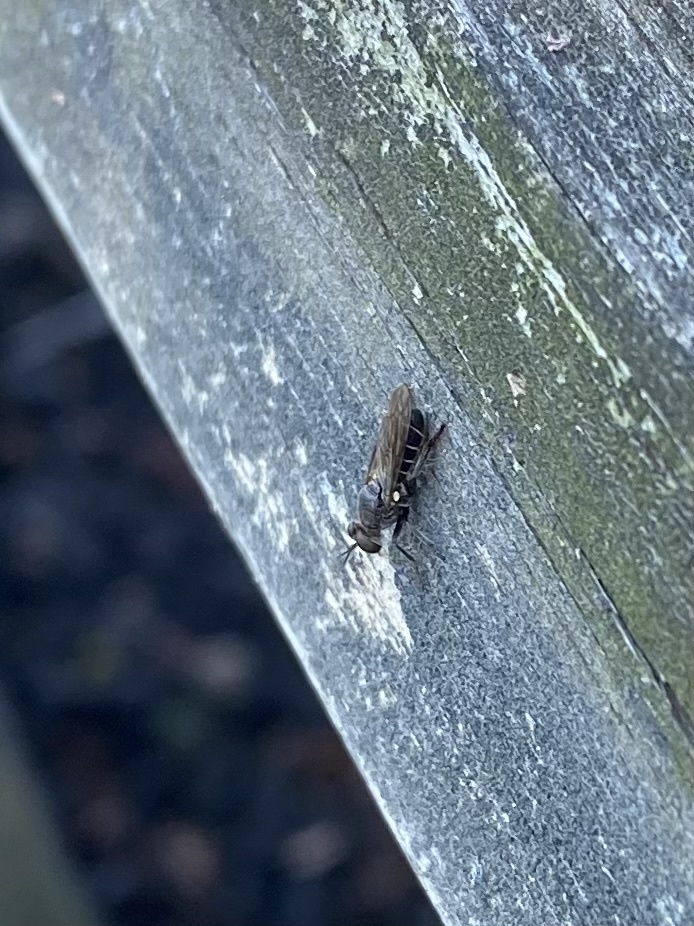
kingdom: Animalia
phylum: Arthropoda
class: Insecta
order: Diptera
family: Asilidae
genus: Atomosia
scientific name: Atomosia puella
